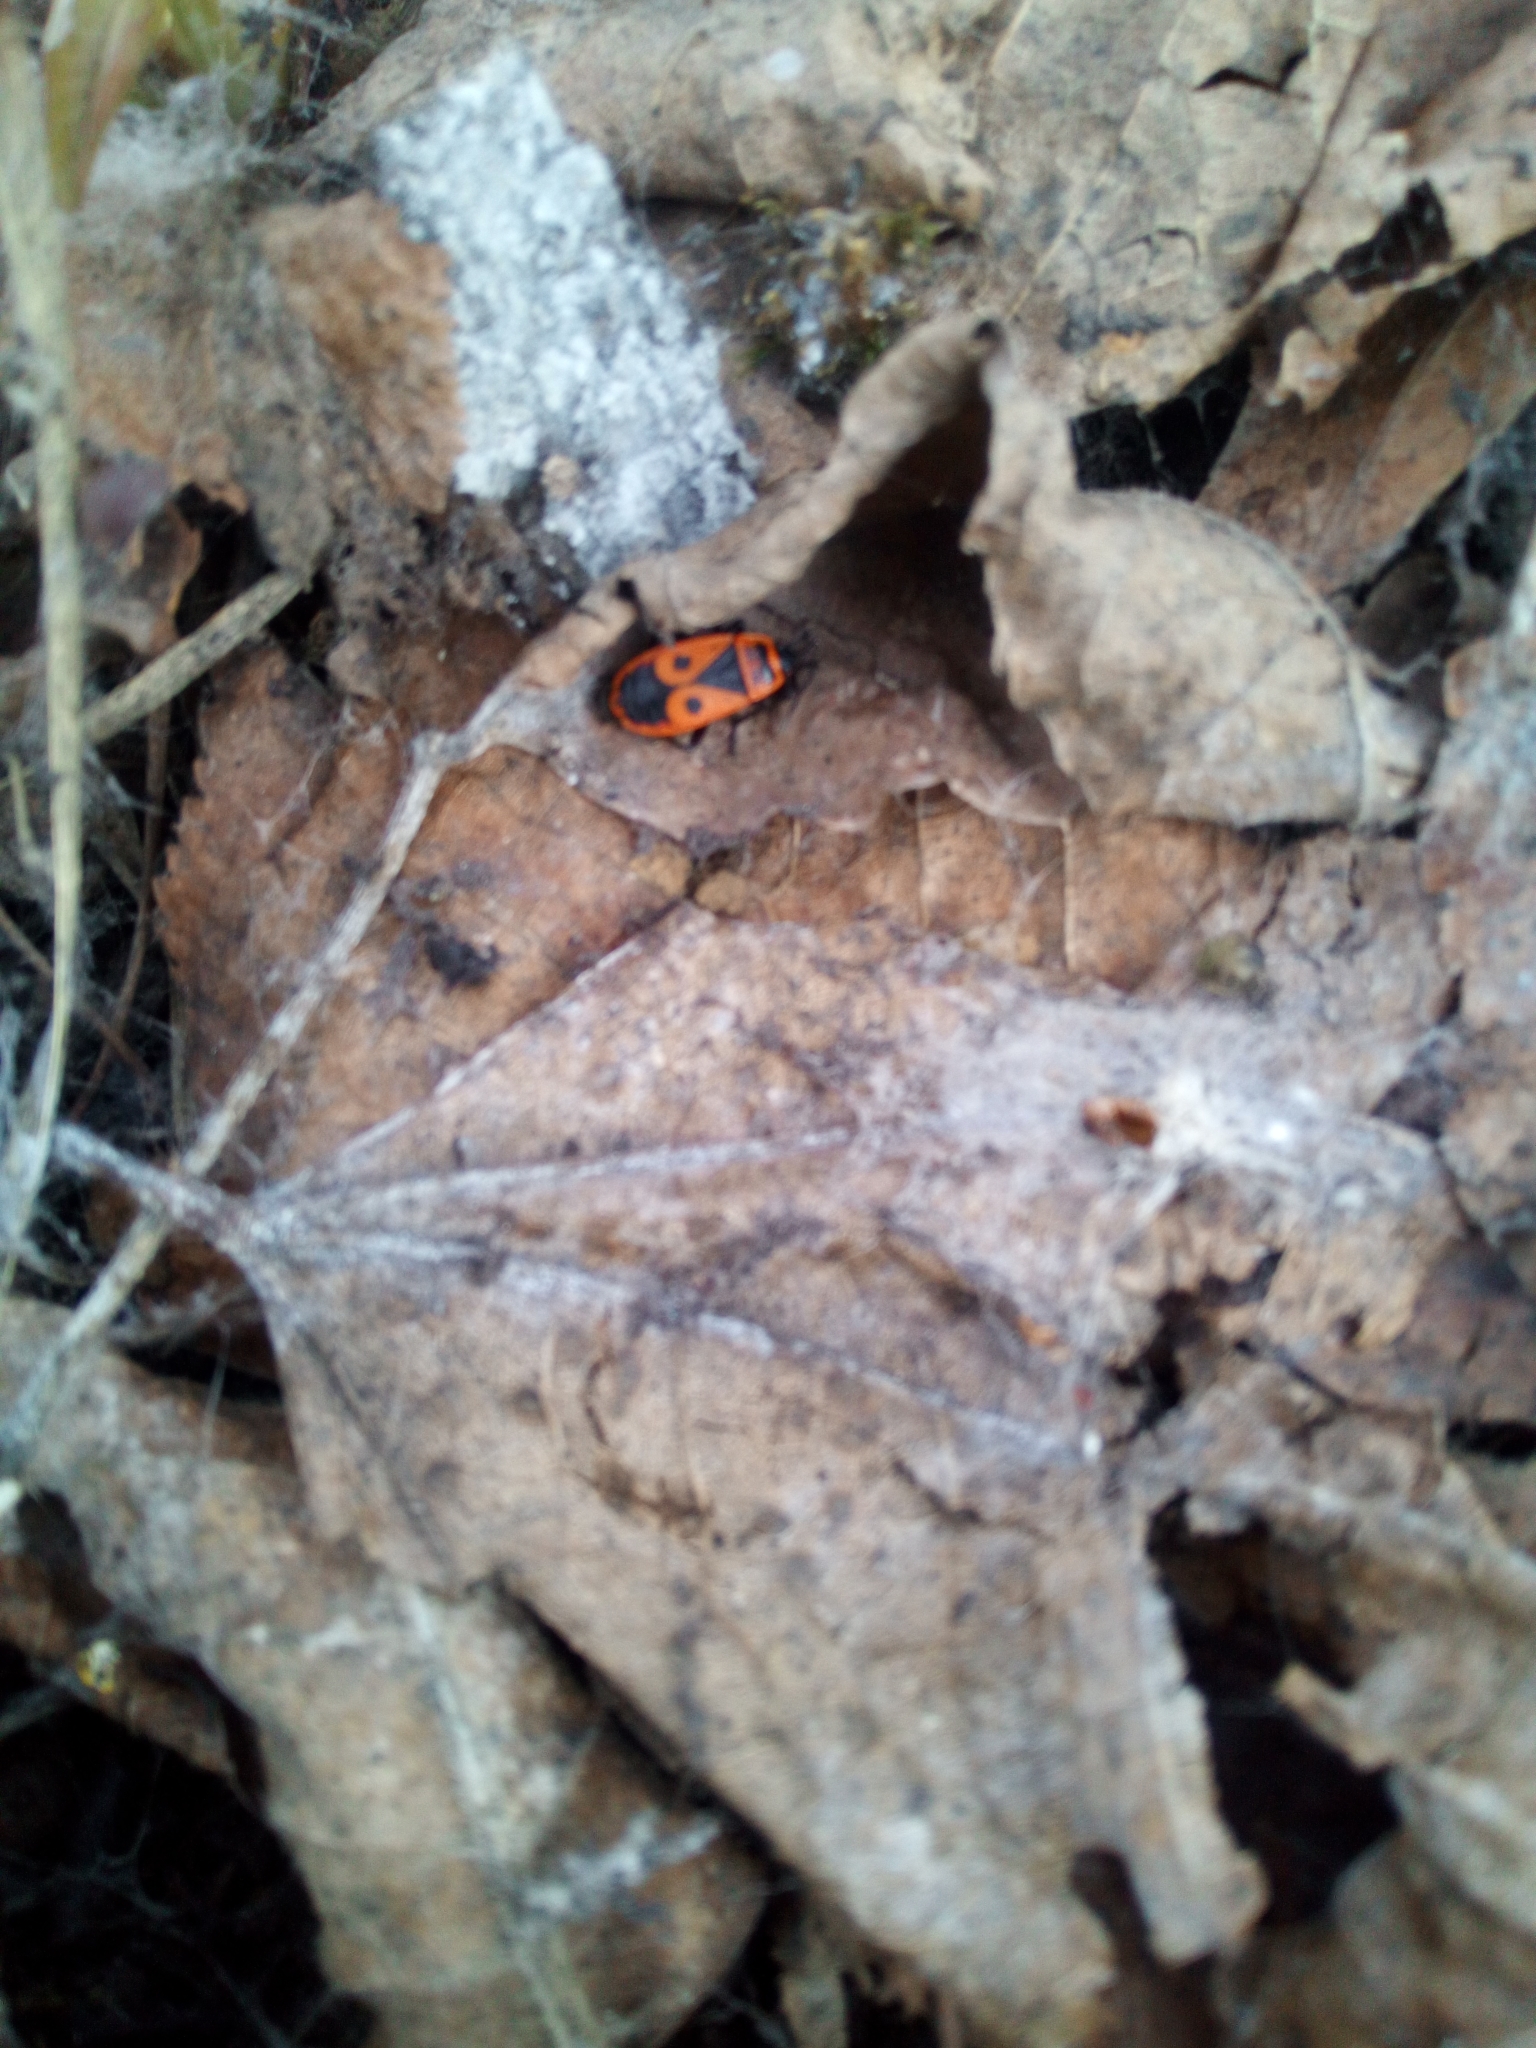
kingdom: Animalia
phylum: Arthropoda
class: Insecta
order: Hemiptera
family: Pyrrhocoridae
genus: Pyrrhocoris
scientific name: Pyrrhocoris apterus
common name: Firebug
